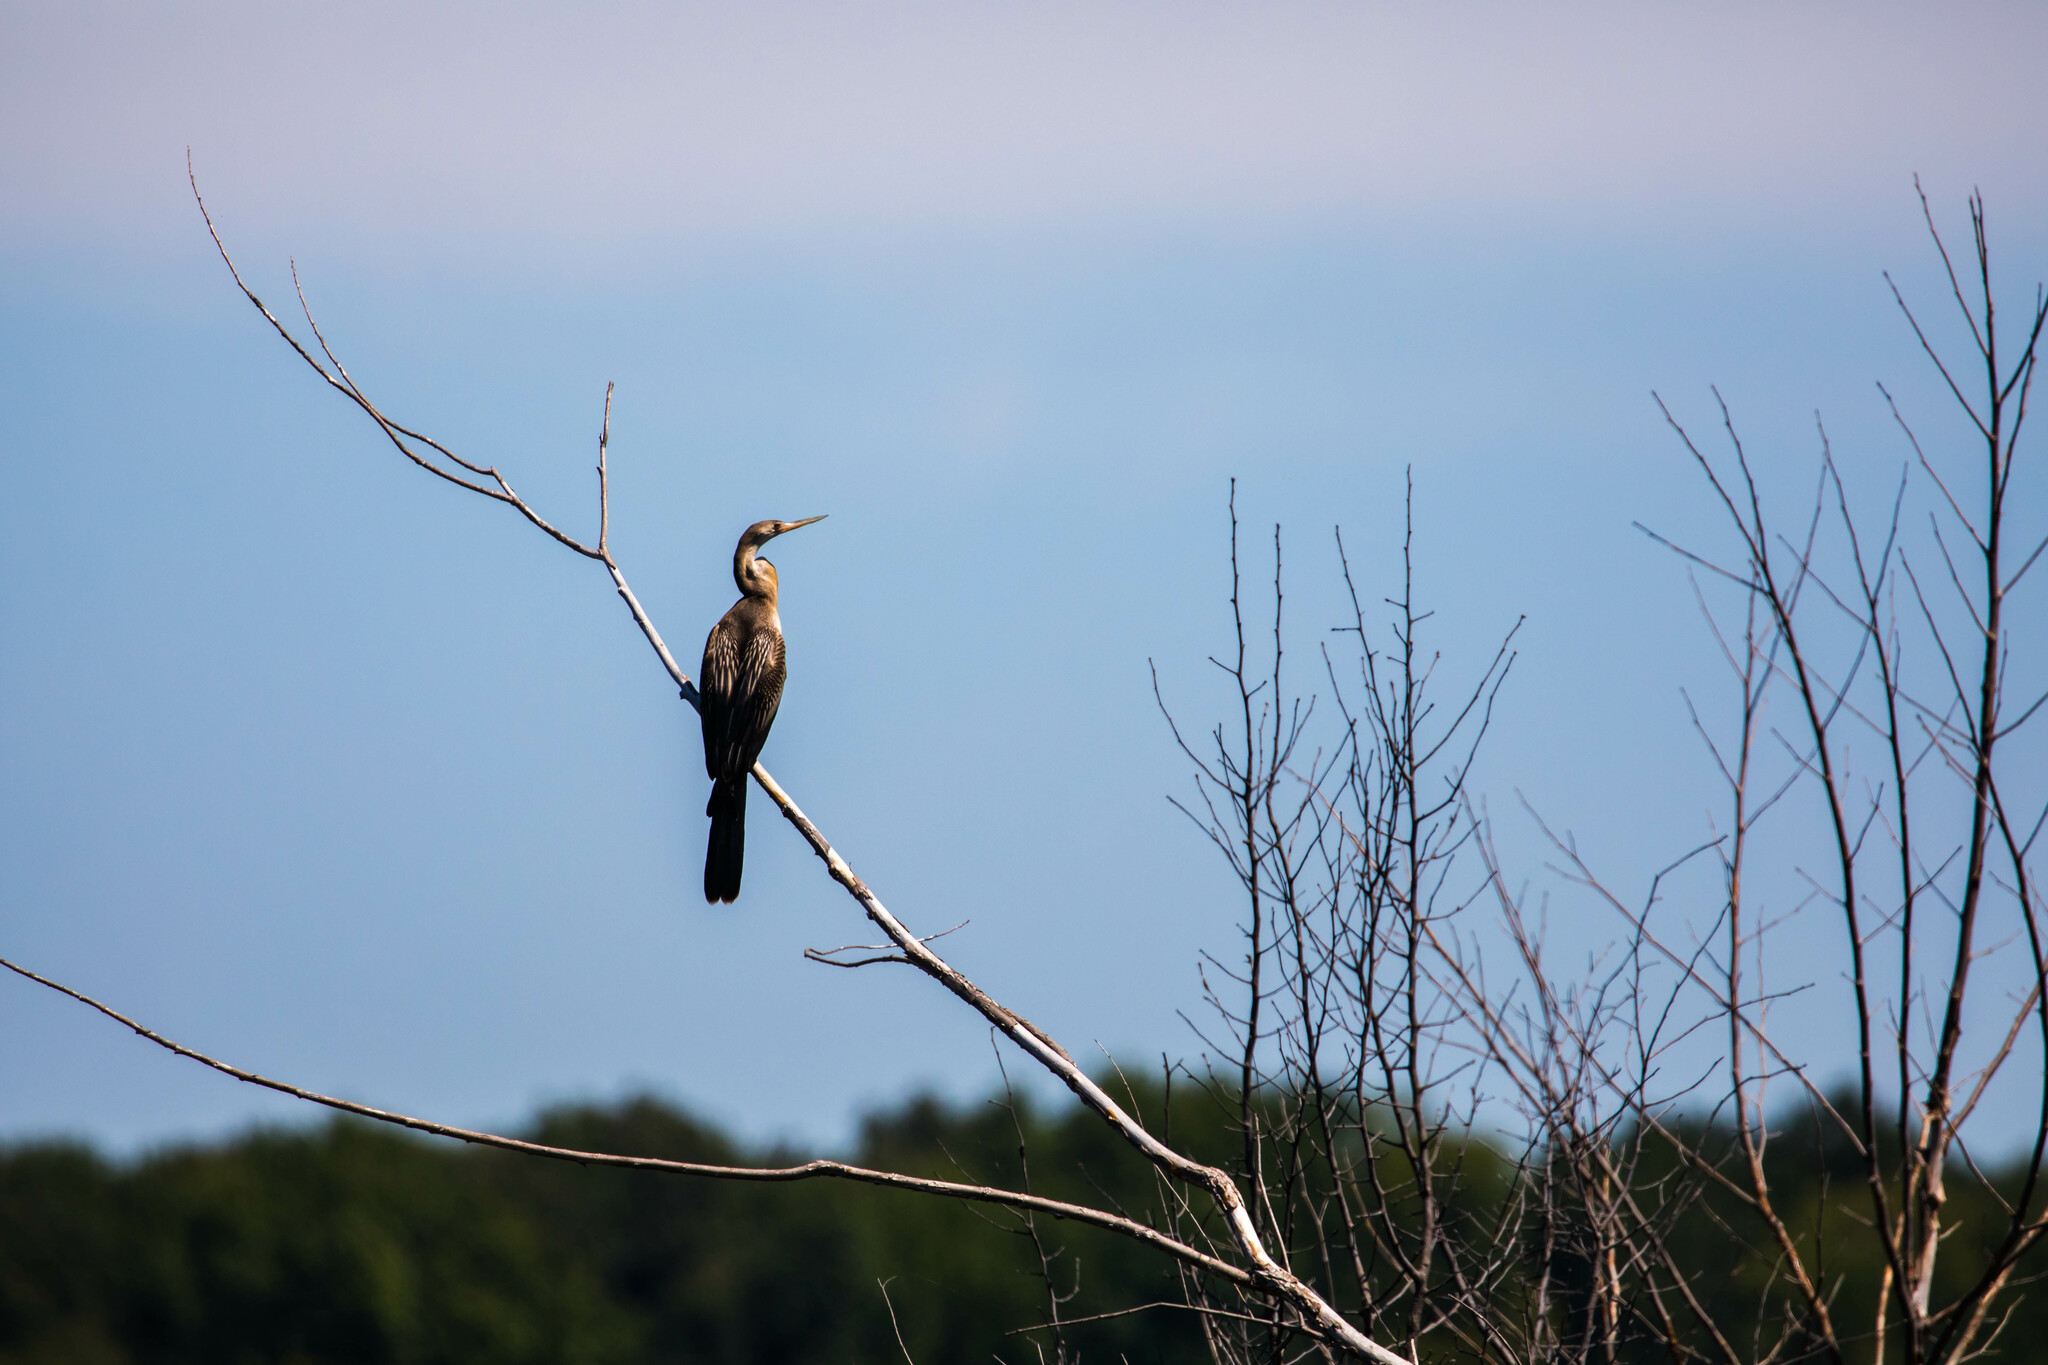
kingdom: Animalia
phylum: Chordata
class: Aves
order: Suliformes
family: Anhingidae
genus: Anhinga
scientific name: Anhinga anhinga
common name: Anhinga
